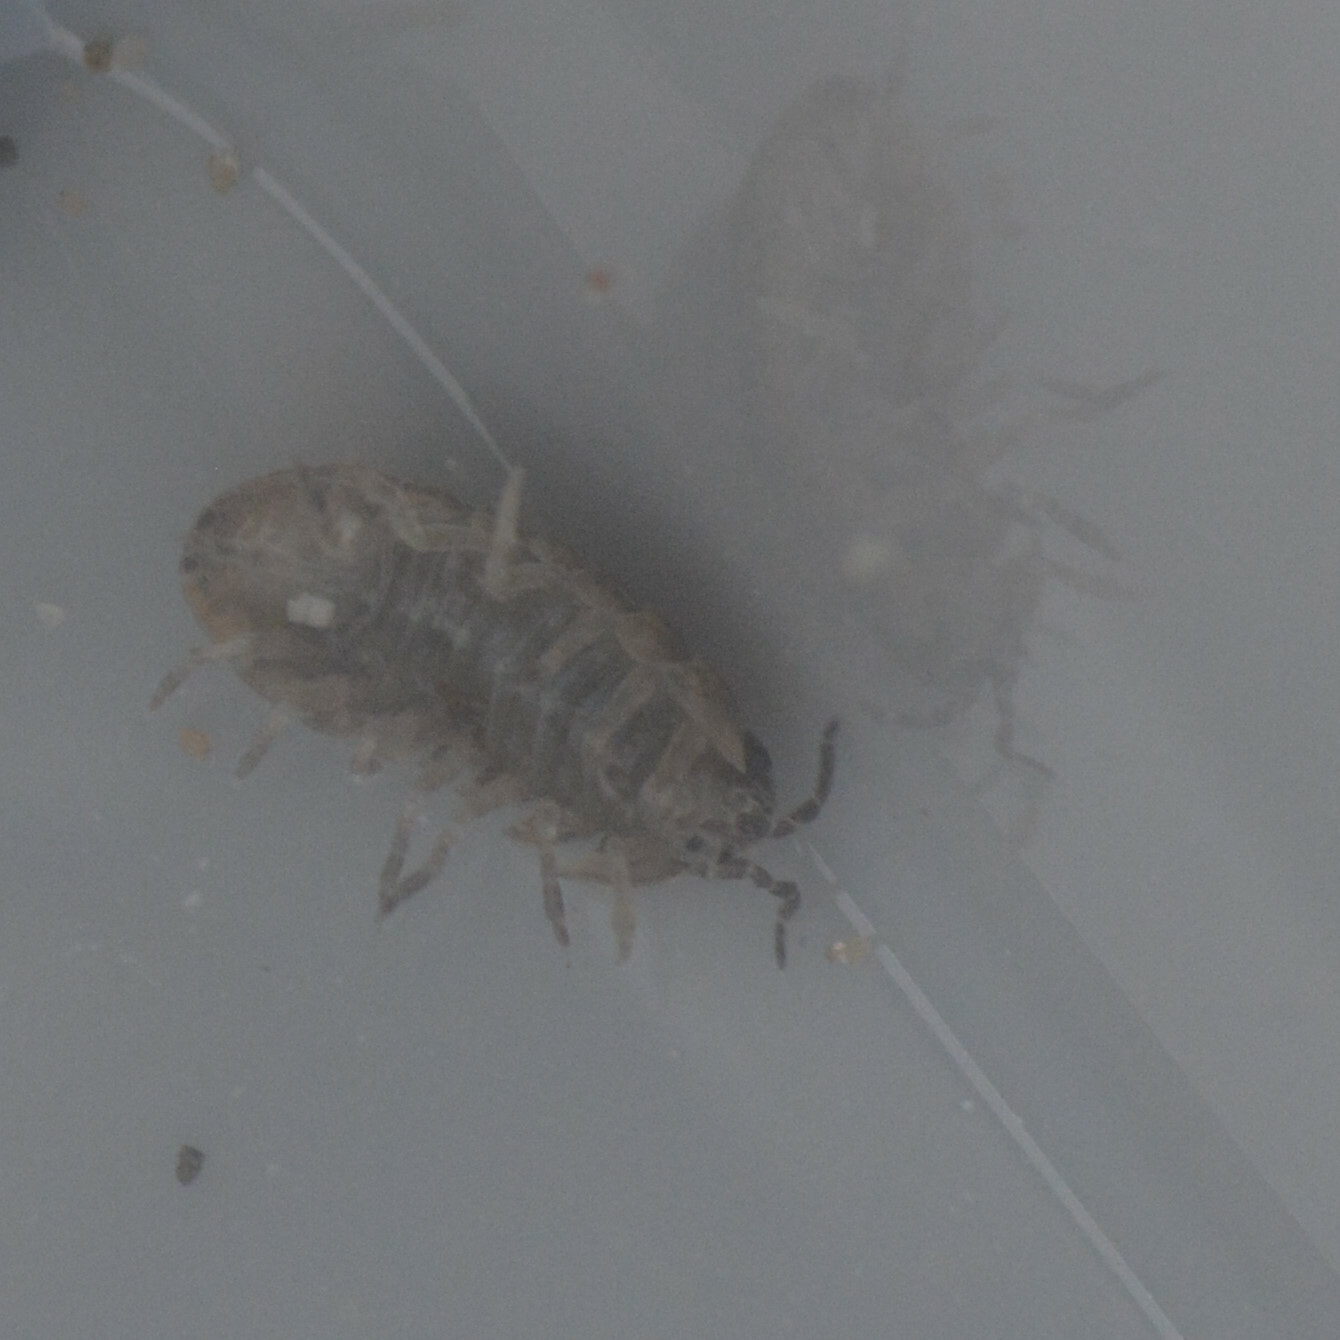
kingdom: Animalia
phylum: Arthropoda
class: Malacostraca
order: Isopoda
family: Armadillidiidae
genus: Armadillidium
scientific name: Armadillidium vulgare
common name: Common pill woodlouse
